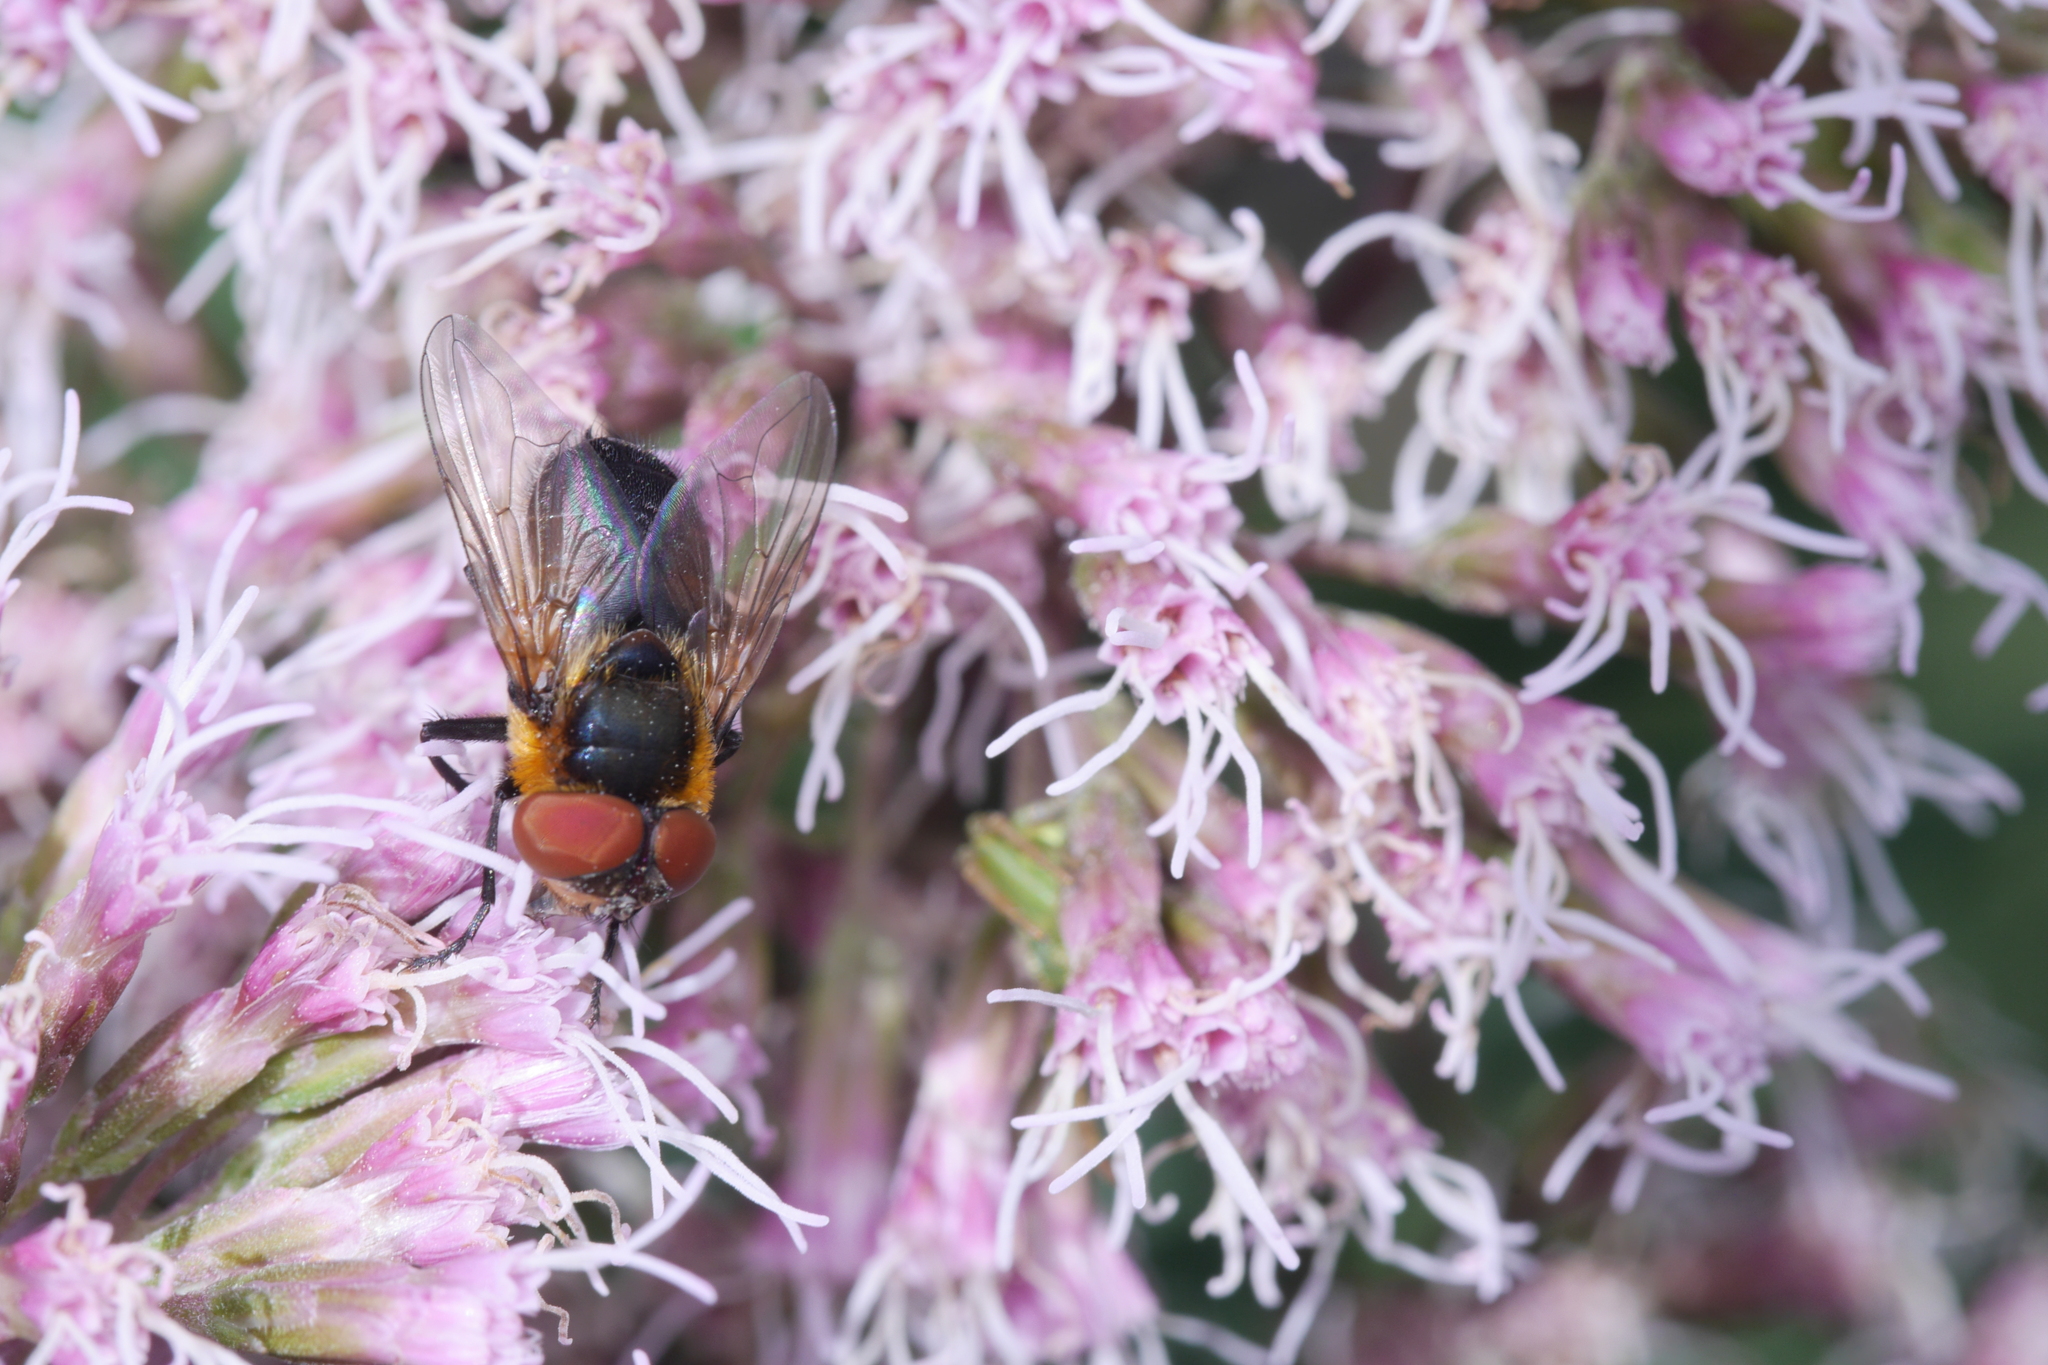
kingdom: Animalia
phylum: Arthropoda
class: Insecta
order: Diptera
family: Tachinidae
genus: Phasia
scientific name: Phasia hemiptera
